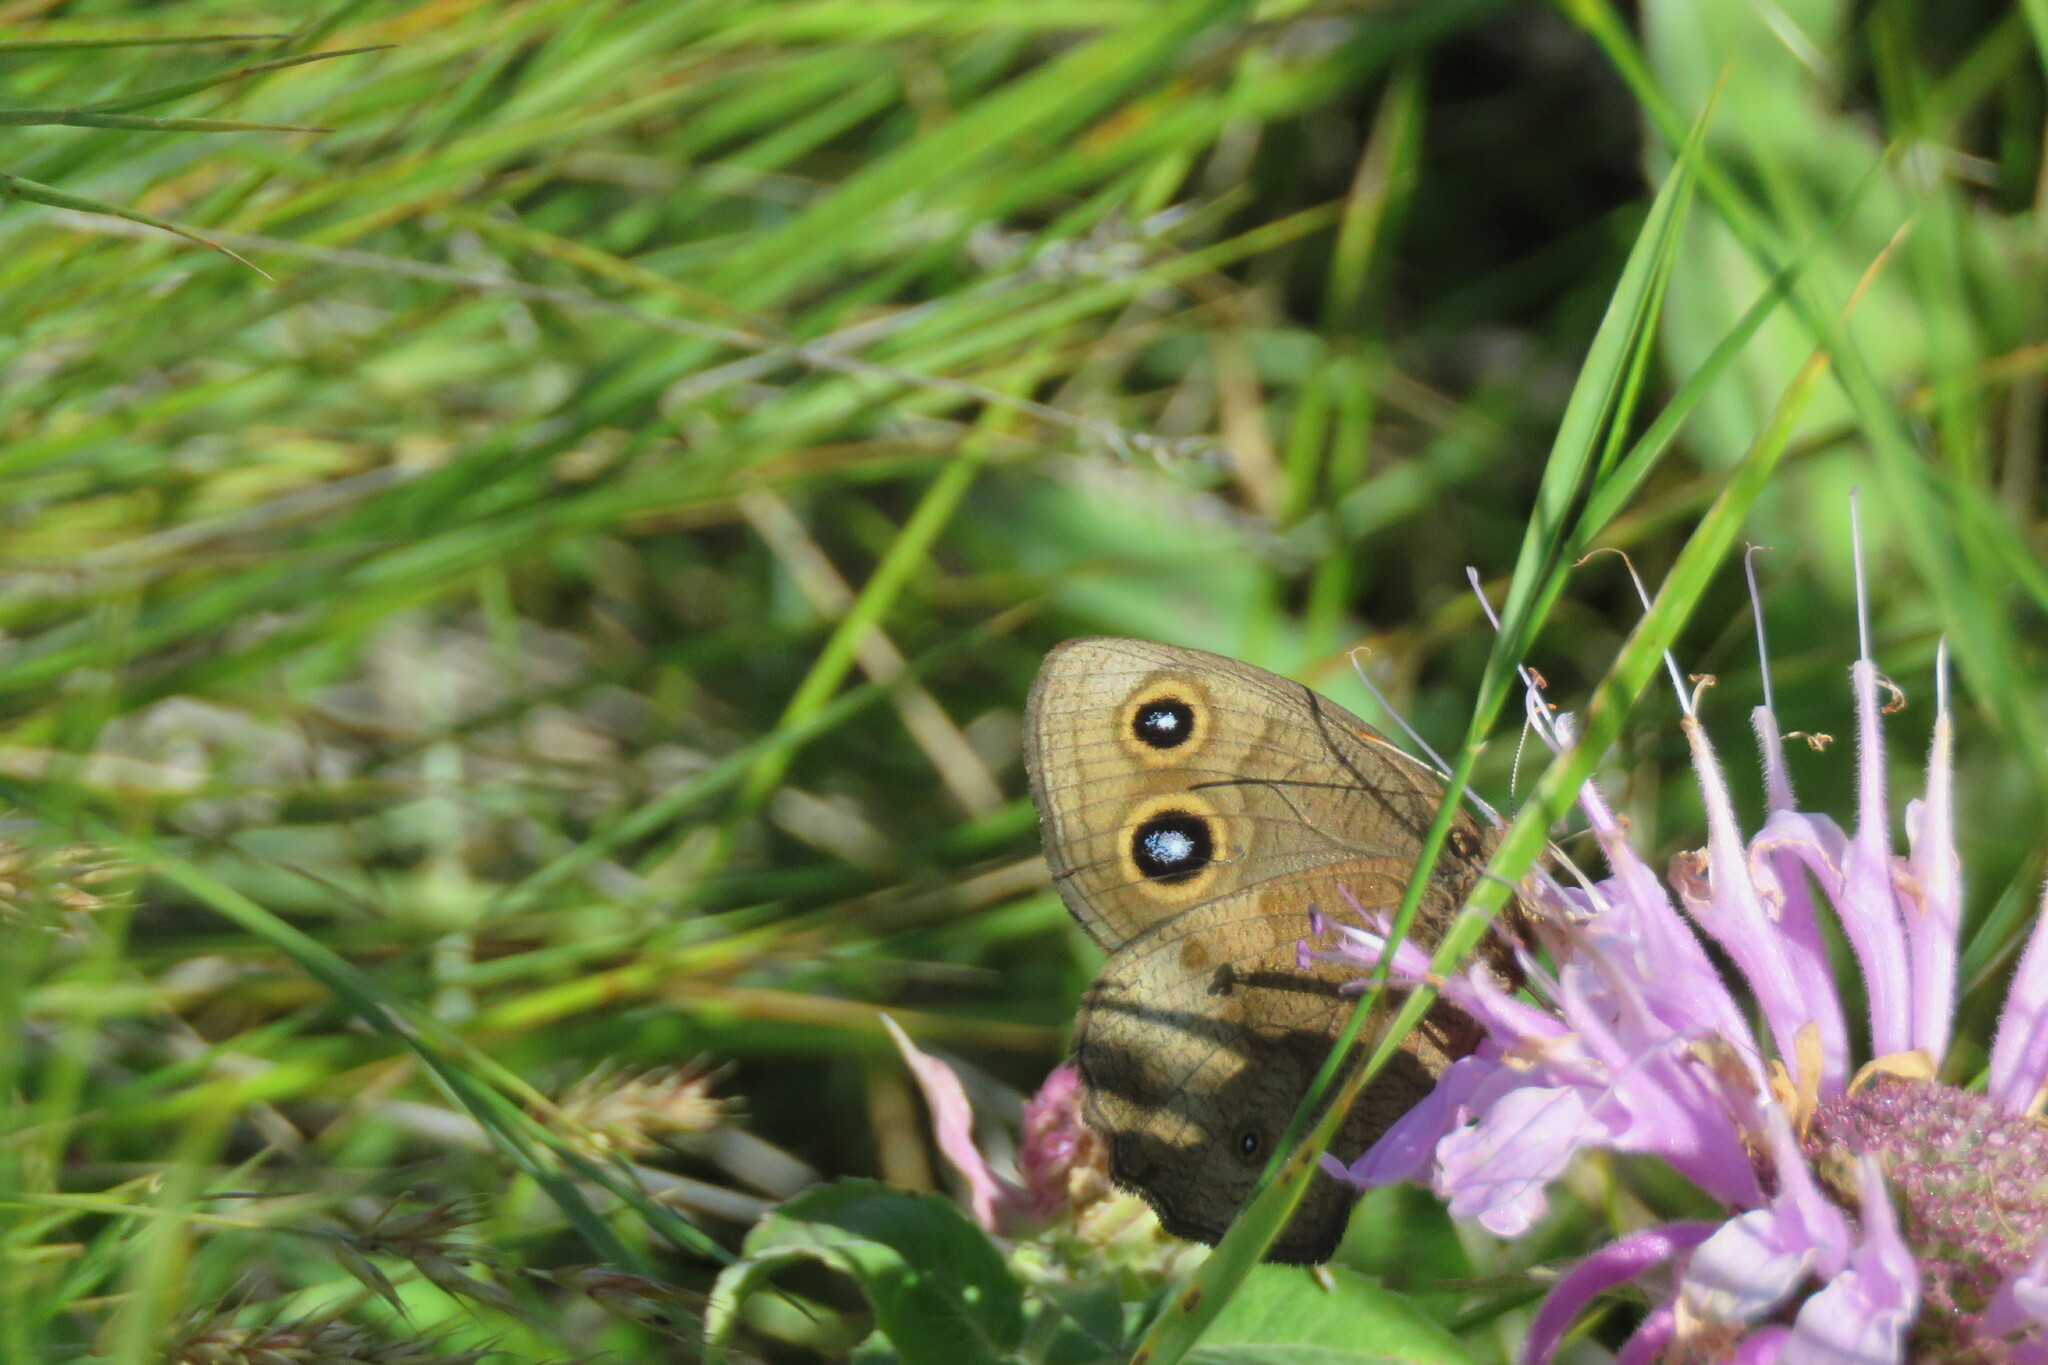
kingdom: Animalia
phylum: Arthropoda
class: Insecta
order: Lepidoptera
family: Nymphalidae
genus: Cercyonis
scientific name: Cercyonis pegala
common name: Common wood-nymph
